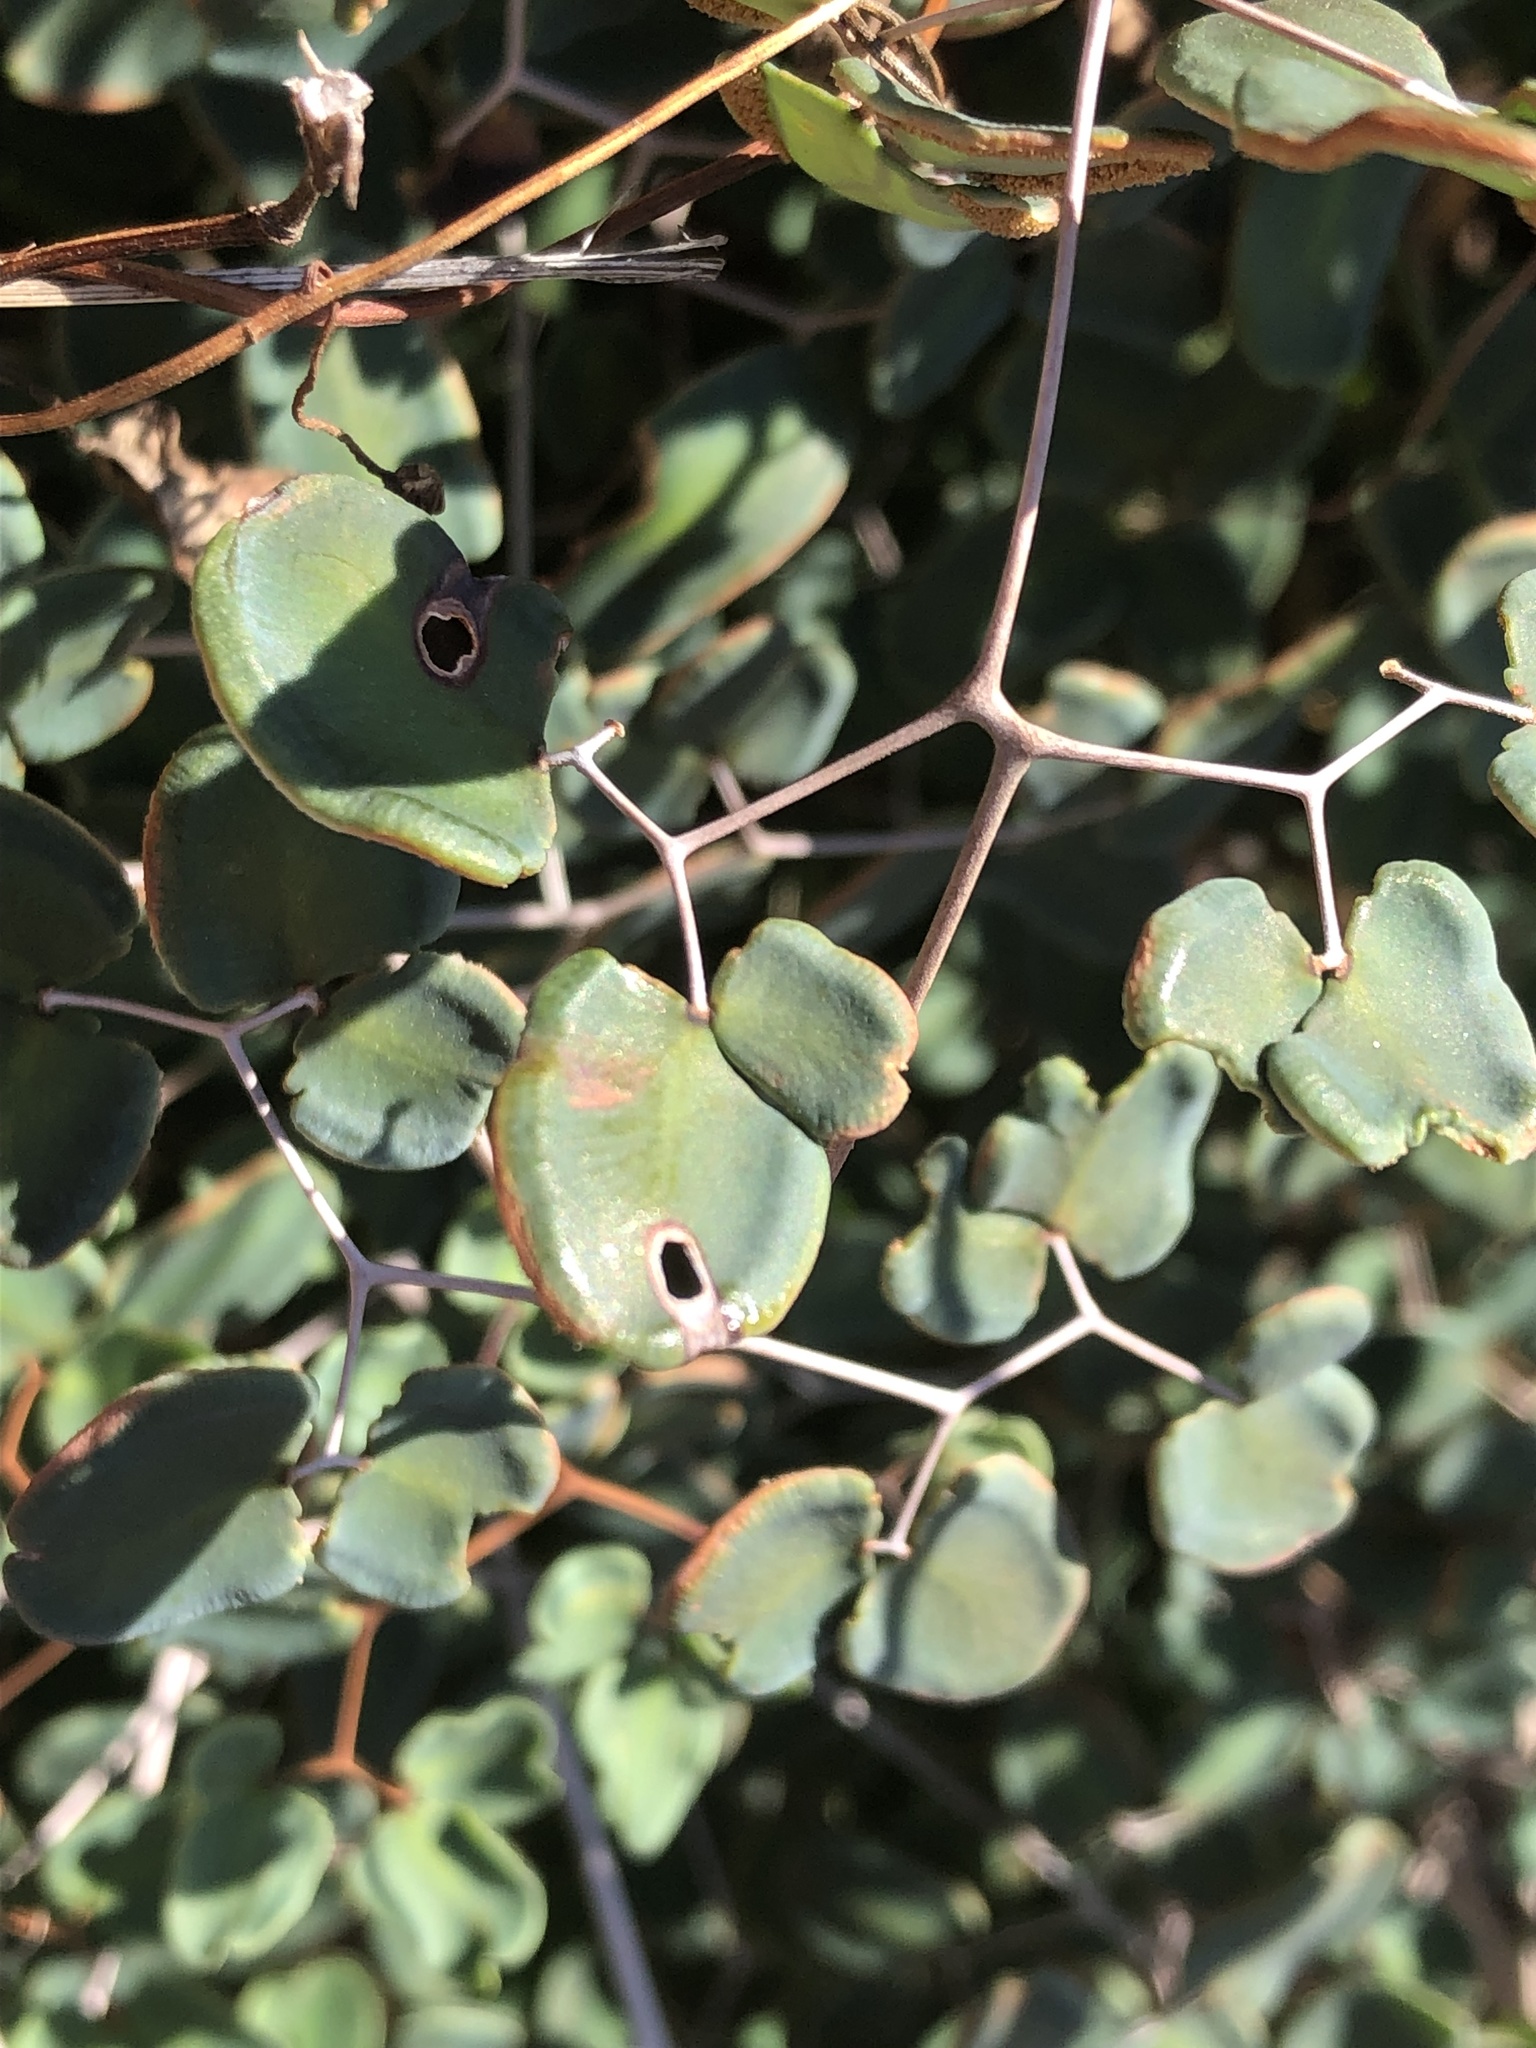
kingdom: Plantae
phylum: Tracheophyta
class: Polypodiopsida
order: Polypodiales
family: Pteridaceae
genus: Pellaea
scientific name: Pellaea ovata
